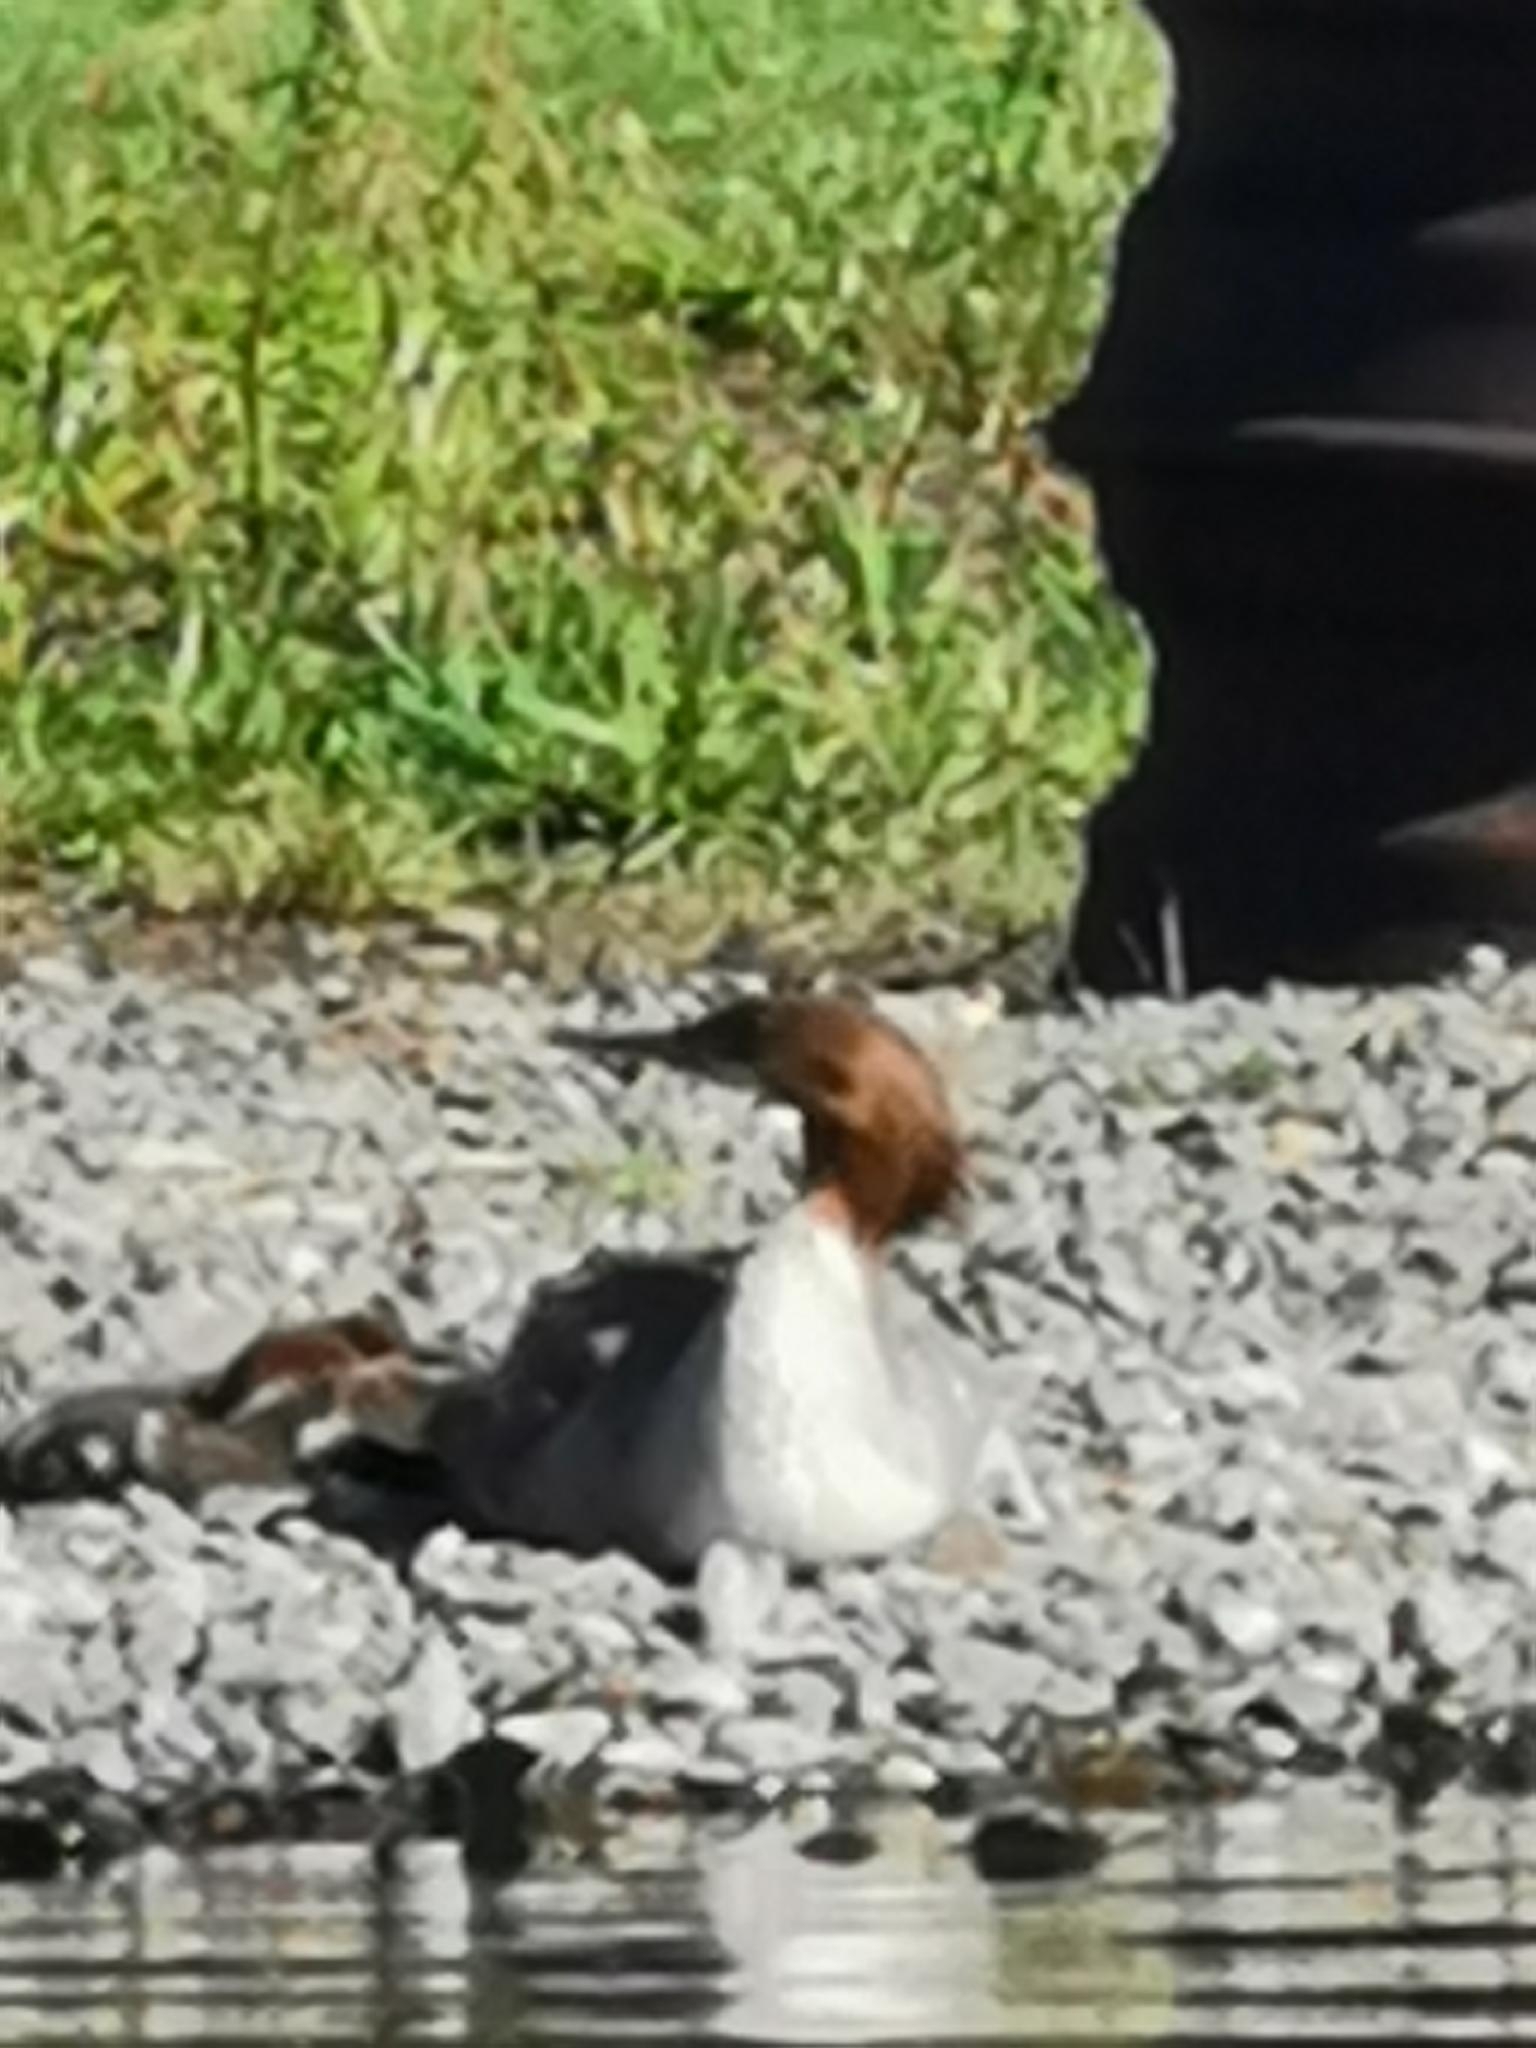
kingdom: Animalia
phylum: Chordata
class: Aves
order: Anseriformes
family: Anatidae
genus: Mergus
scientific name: Mergus merganser
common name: Common merganser
